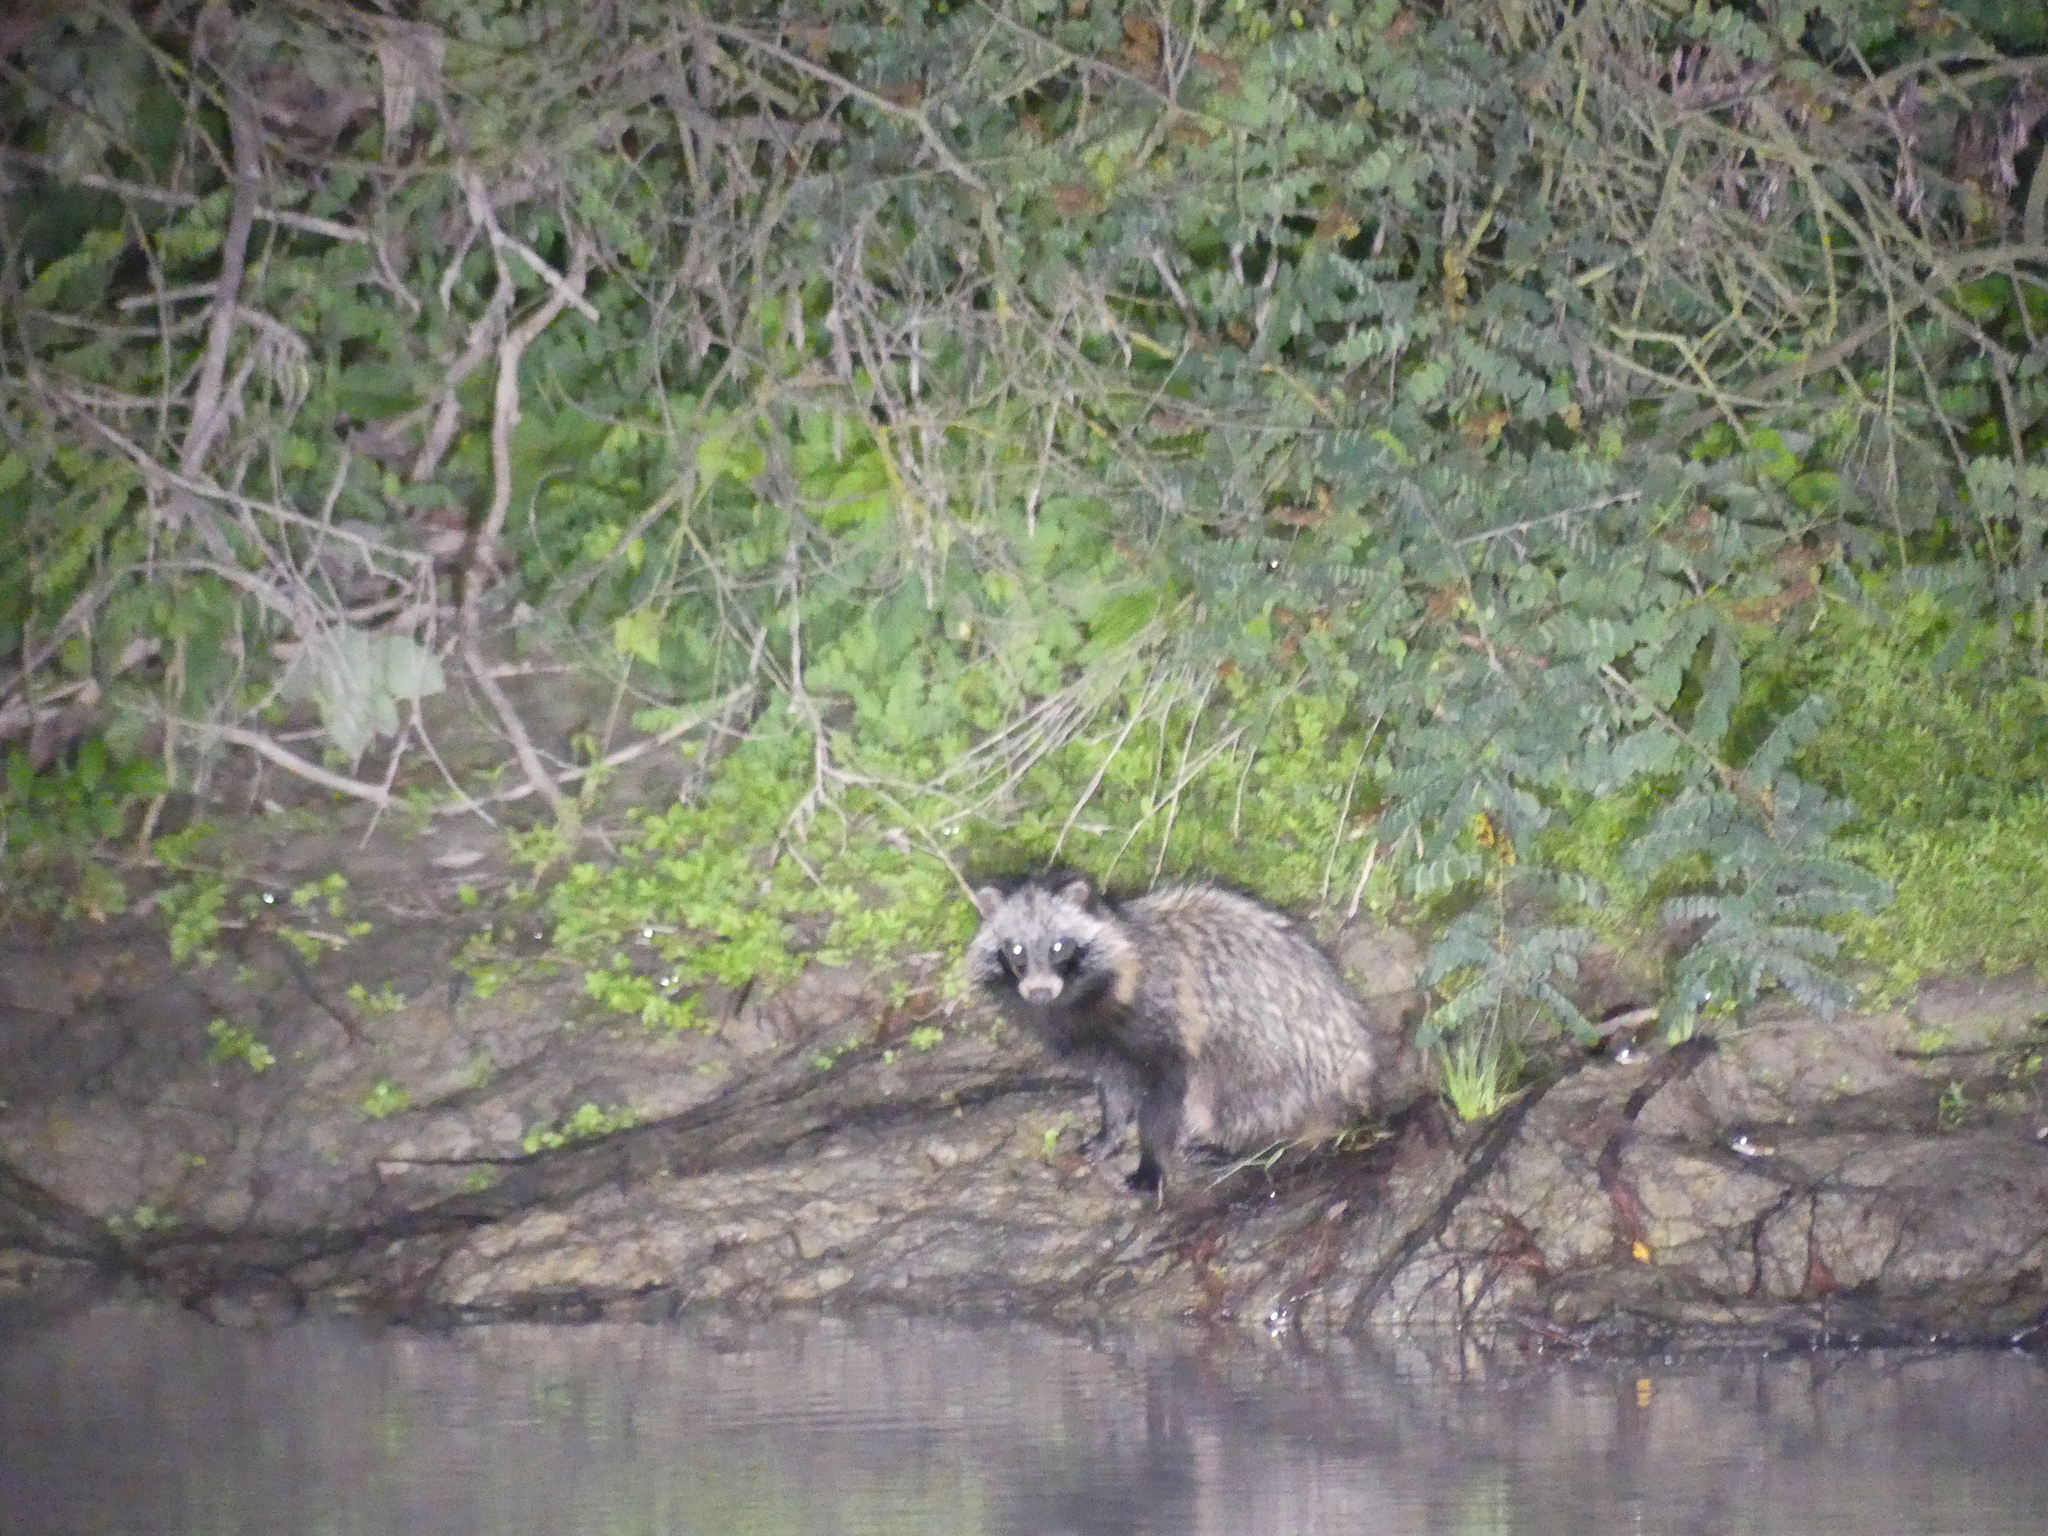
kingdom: Animalia
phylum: Chordata
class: Mammalia
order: Carnivora
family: Canidae
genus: Nyctereutes
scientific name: Nyctereutes procyonoides
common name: Raccoon dog
